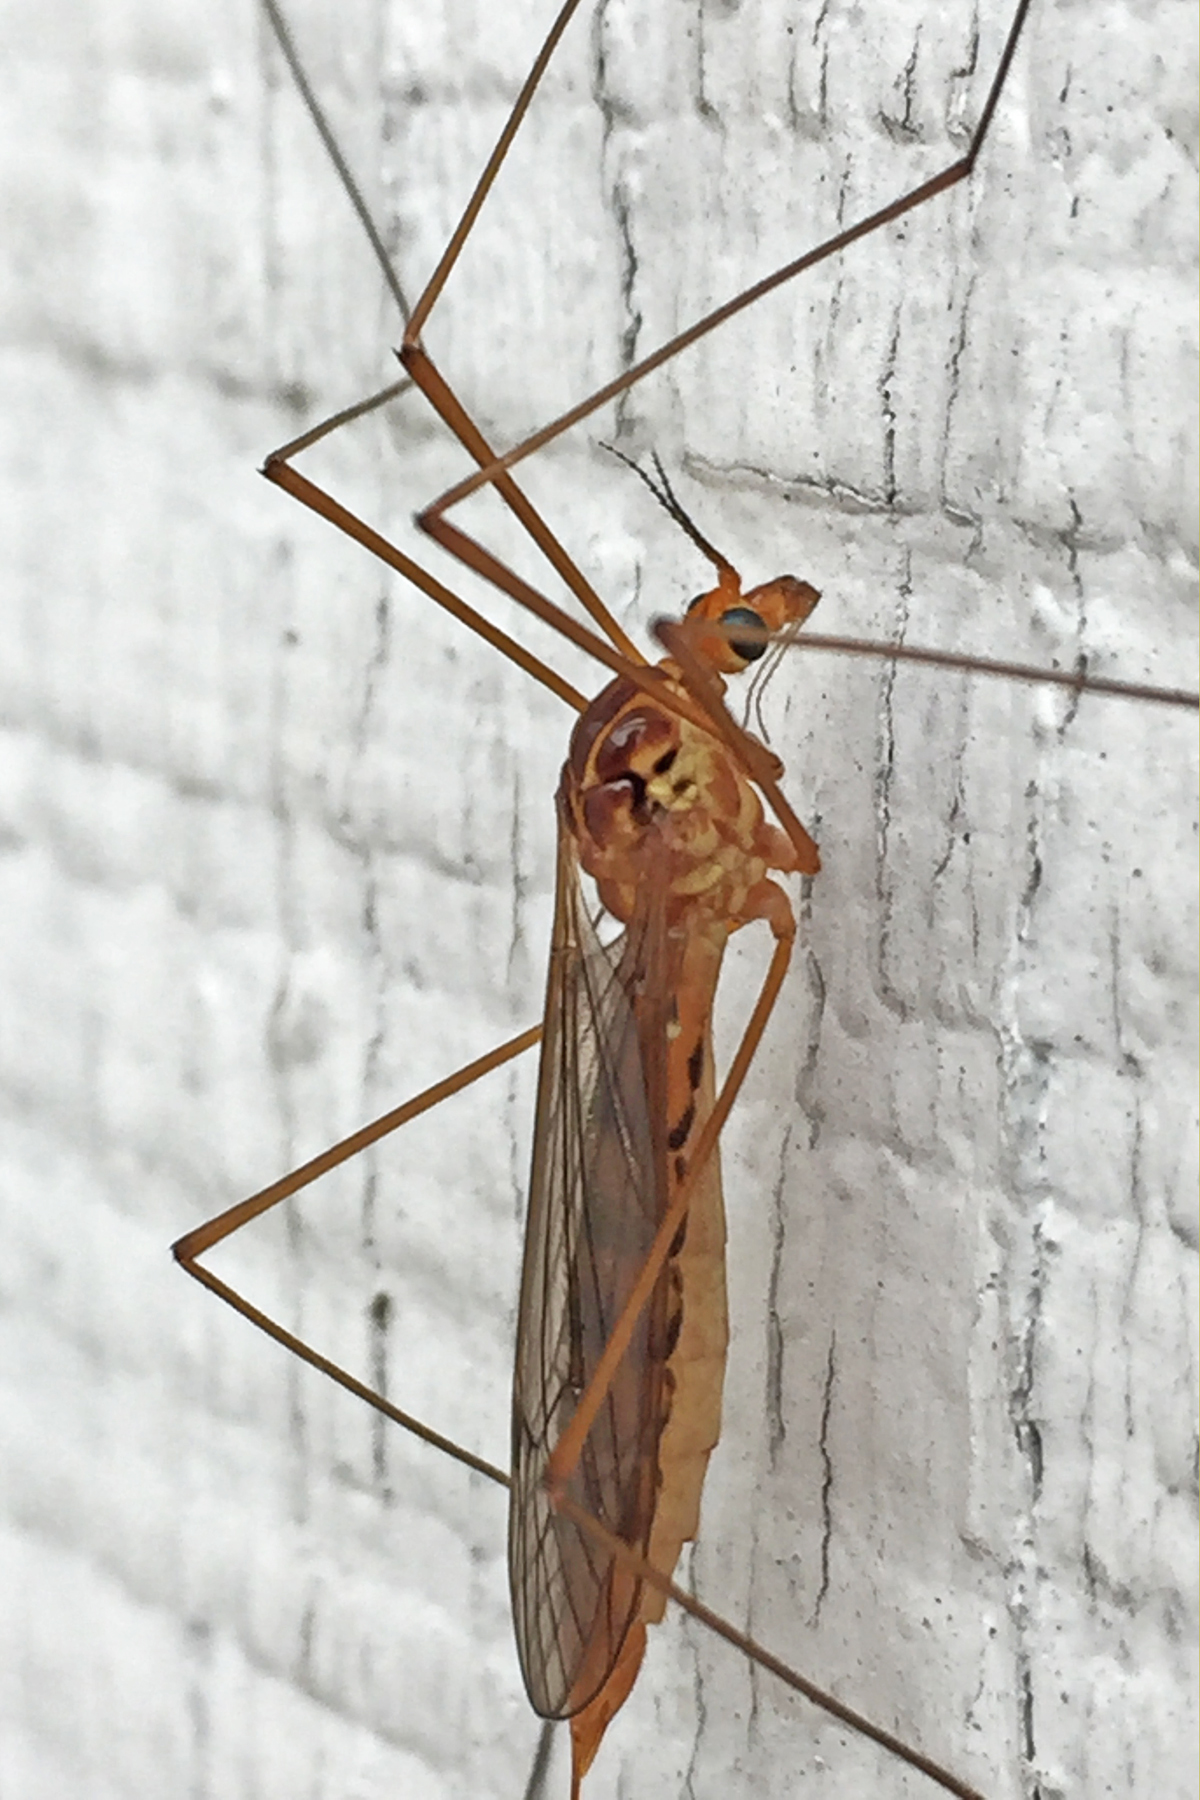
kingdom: Animalia
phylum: Arthropoda
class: Insecta
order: Diptera
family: Tipulidae
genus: Nephrotoma
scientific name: Nephrotoma ferruginea
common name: Ferruginous tiger crane fly
